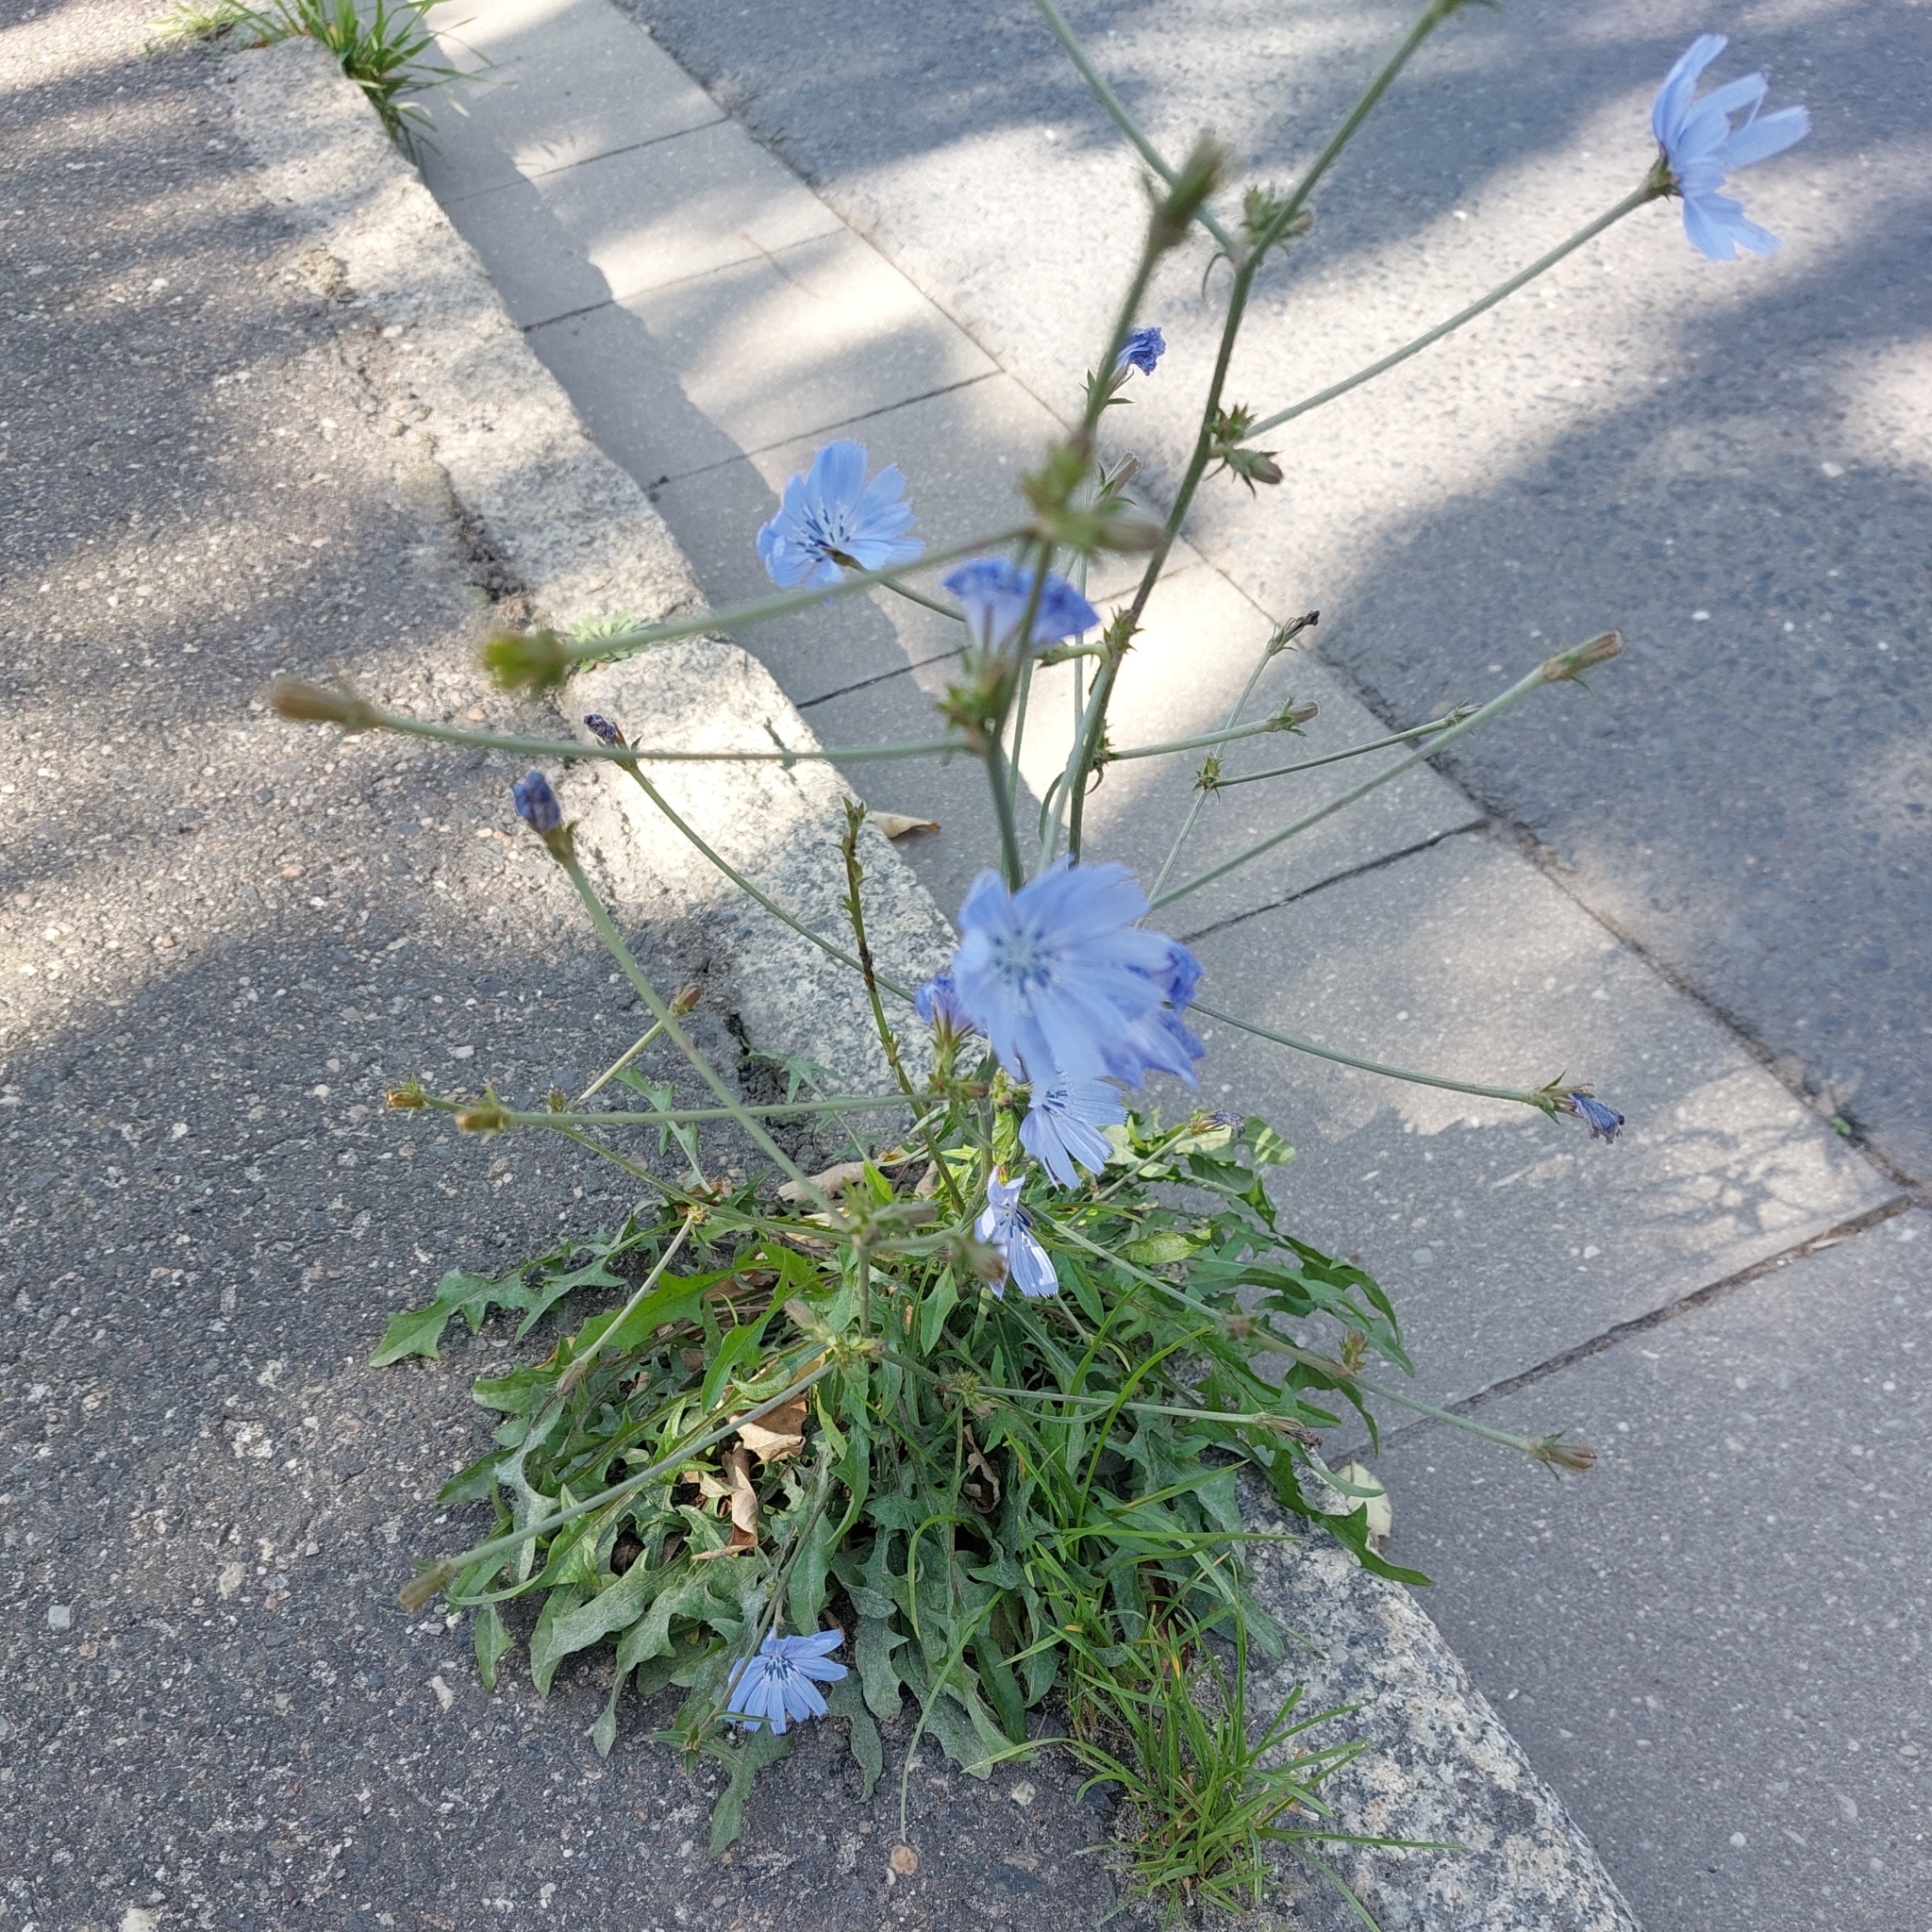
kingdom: Plantae
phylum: Tracheophyta
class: Magnoliopsida
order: Asterales
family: Asteraceae
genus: Cichorium
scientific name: Cichorium intybus
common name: Chicory
